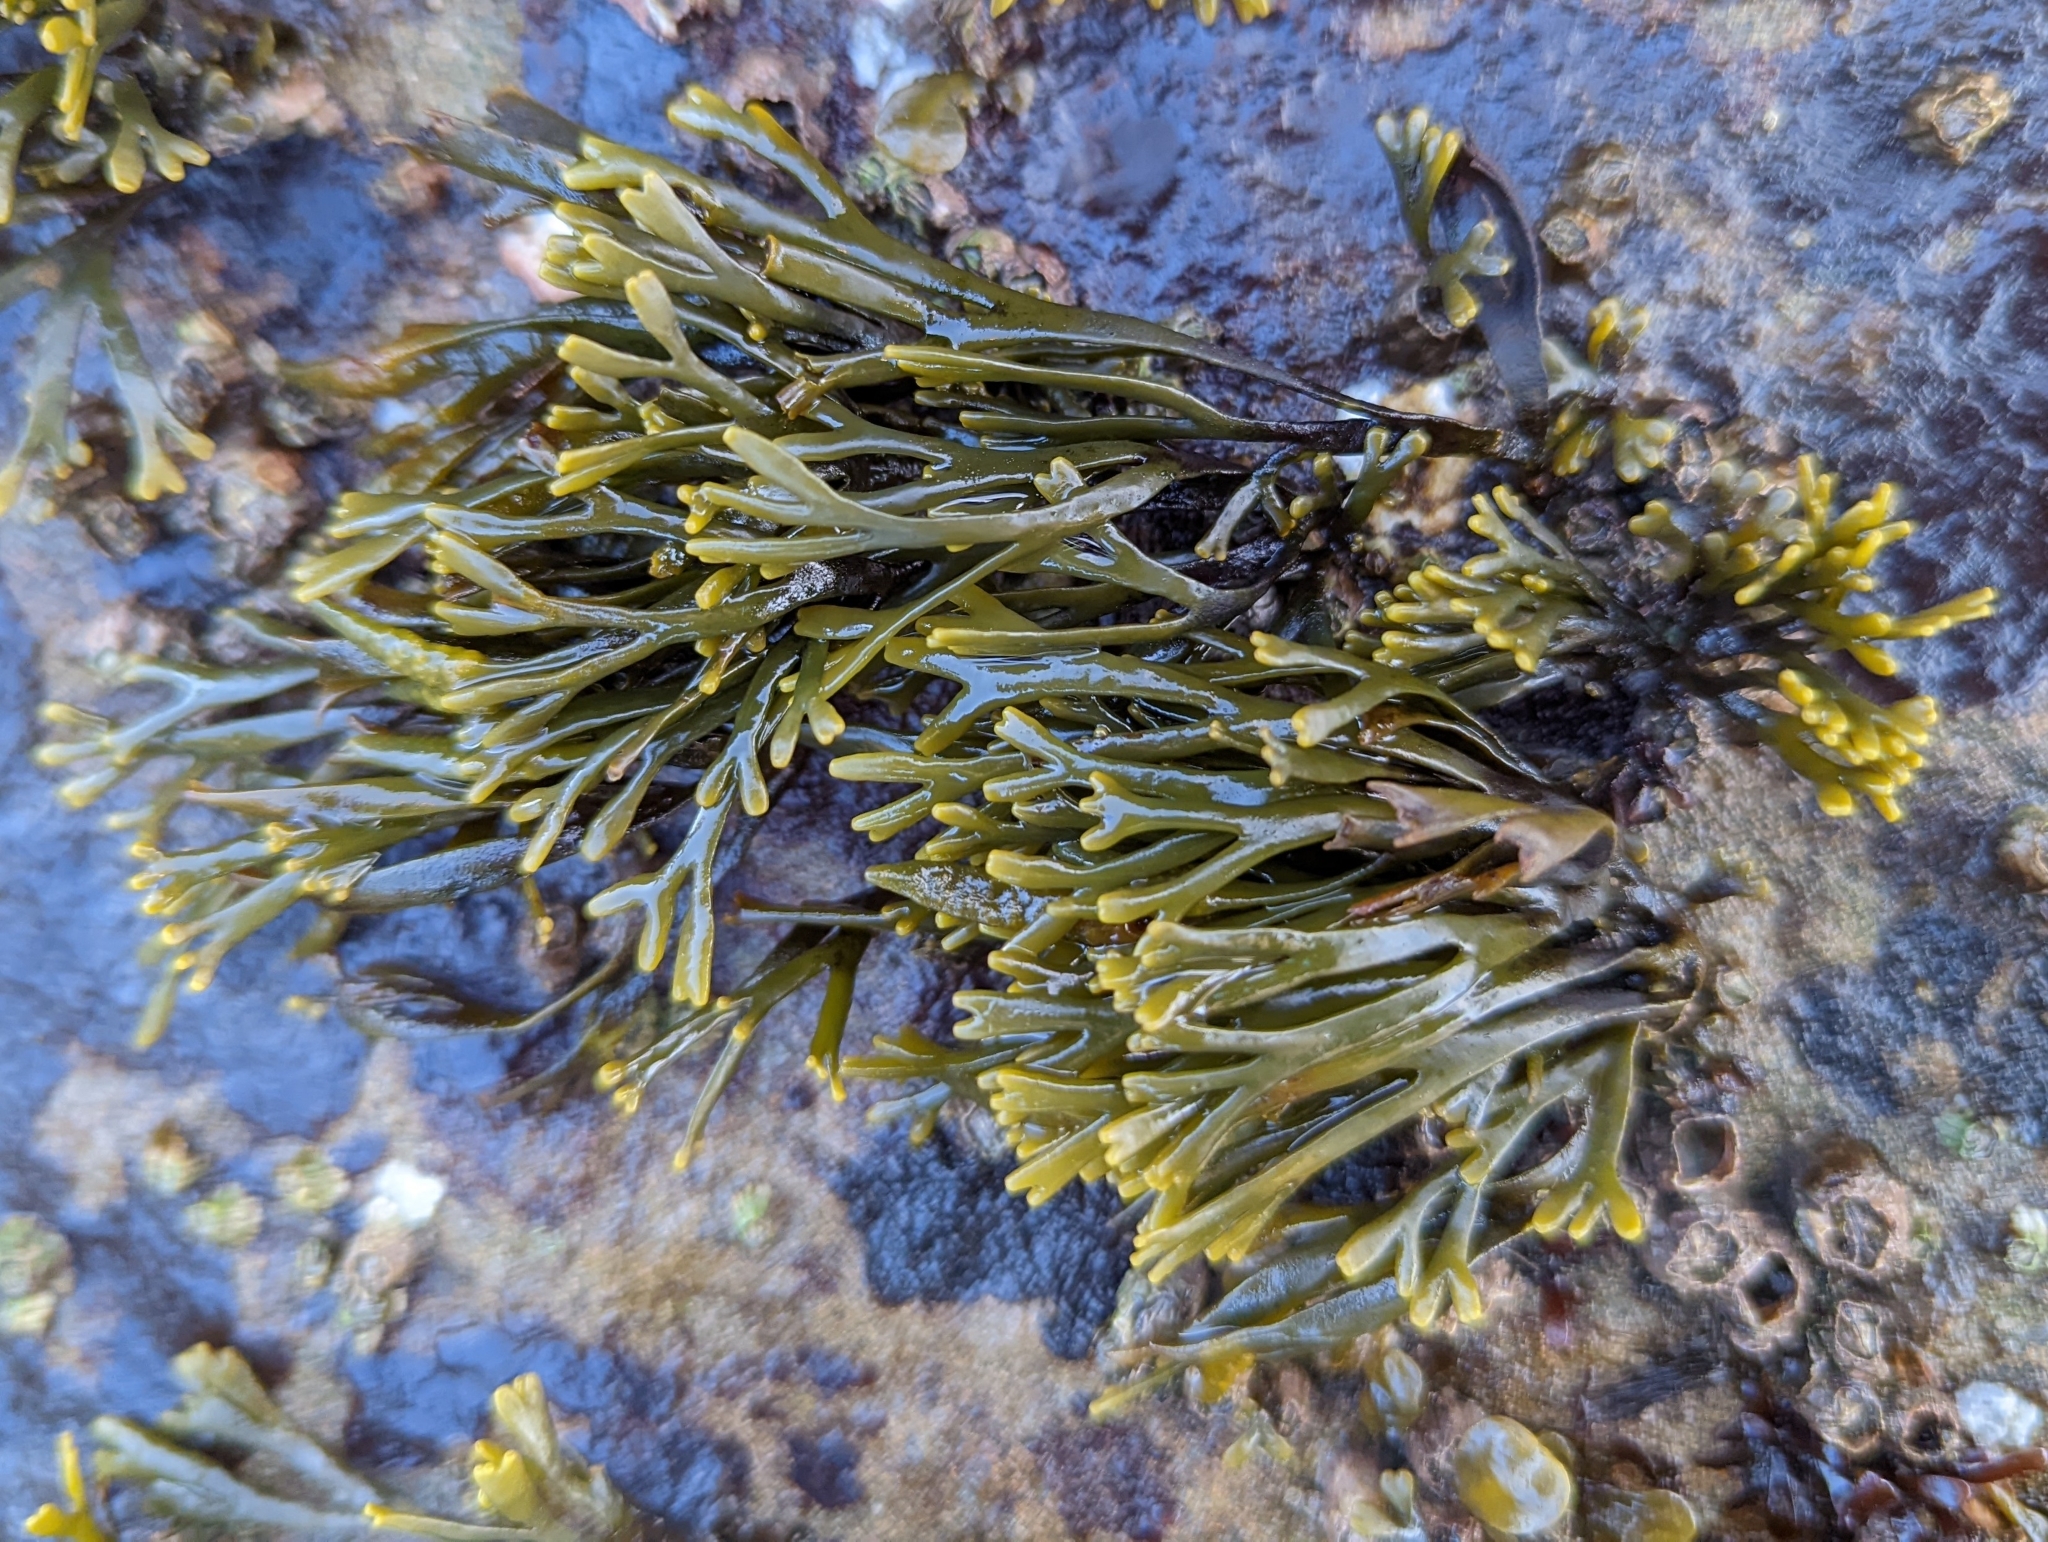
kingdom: Chromista
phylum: Ochrophyta
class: Phaeophyceae
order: Fucales
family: Fucaceae
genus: Pelvetiopsis
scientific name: Pelvetiopsis limitata
